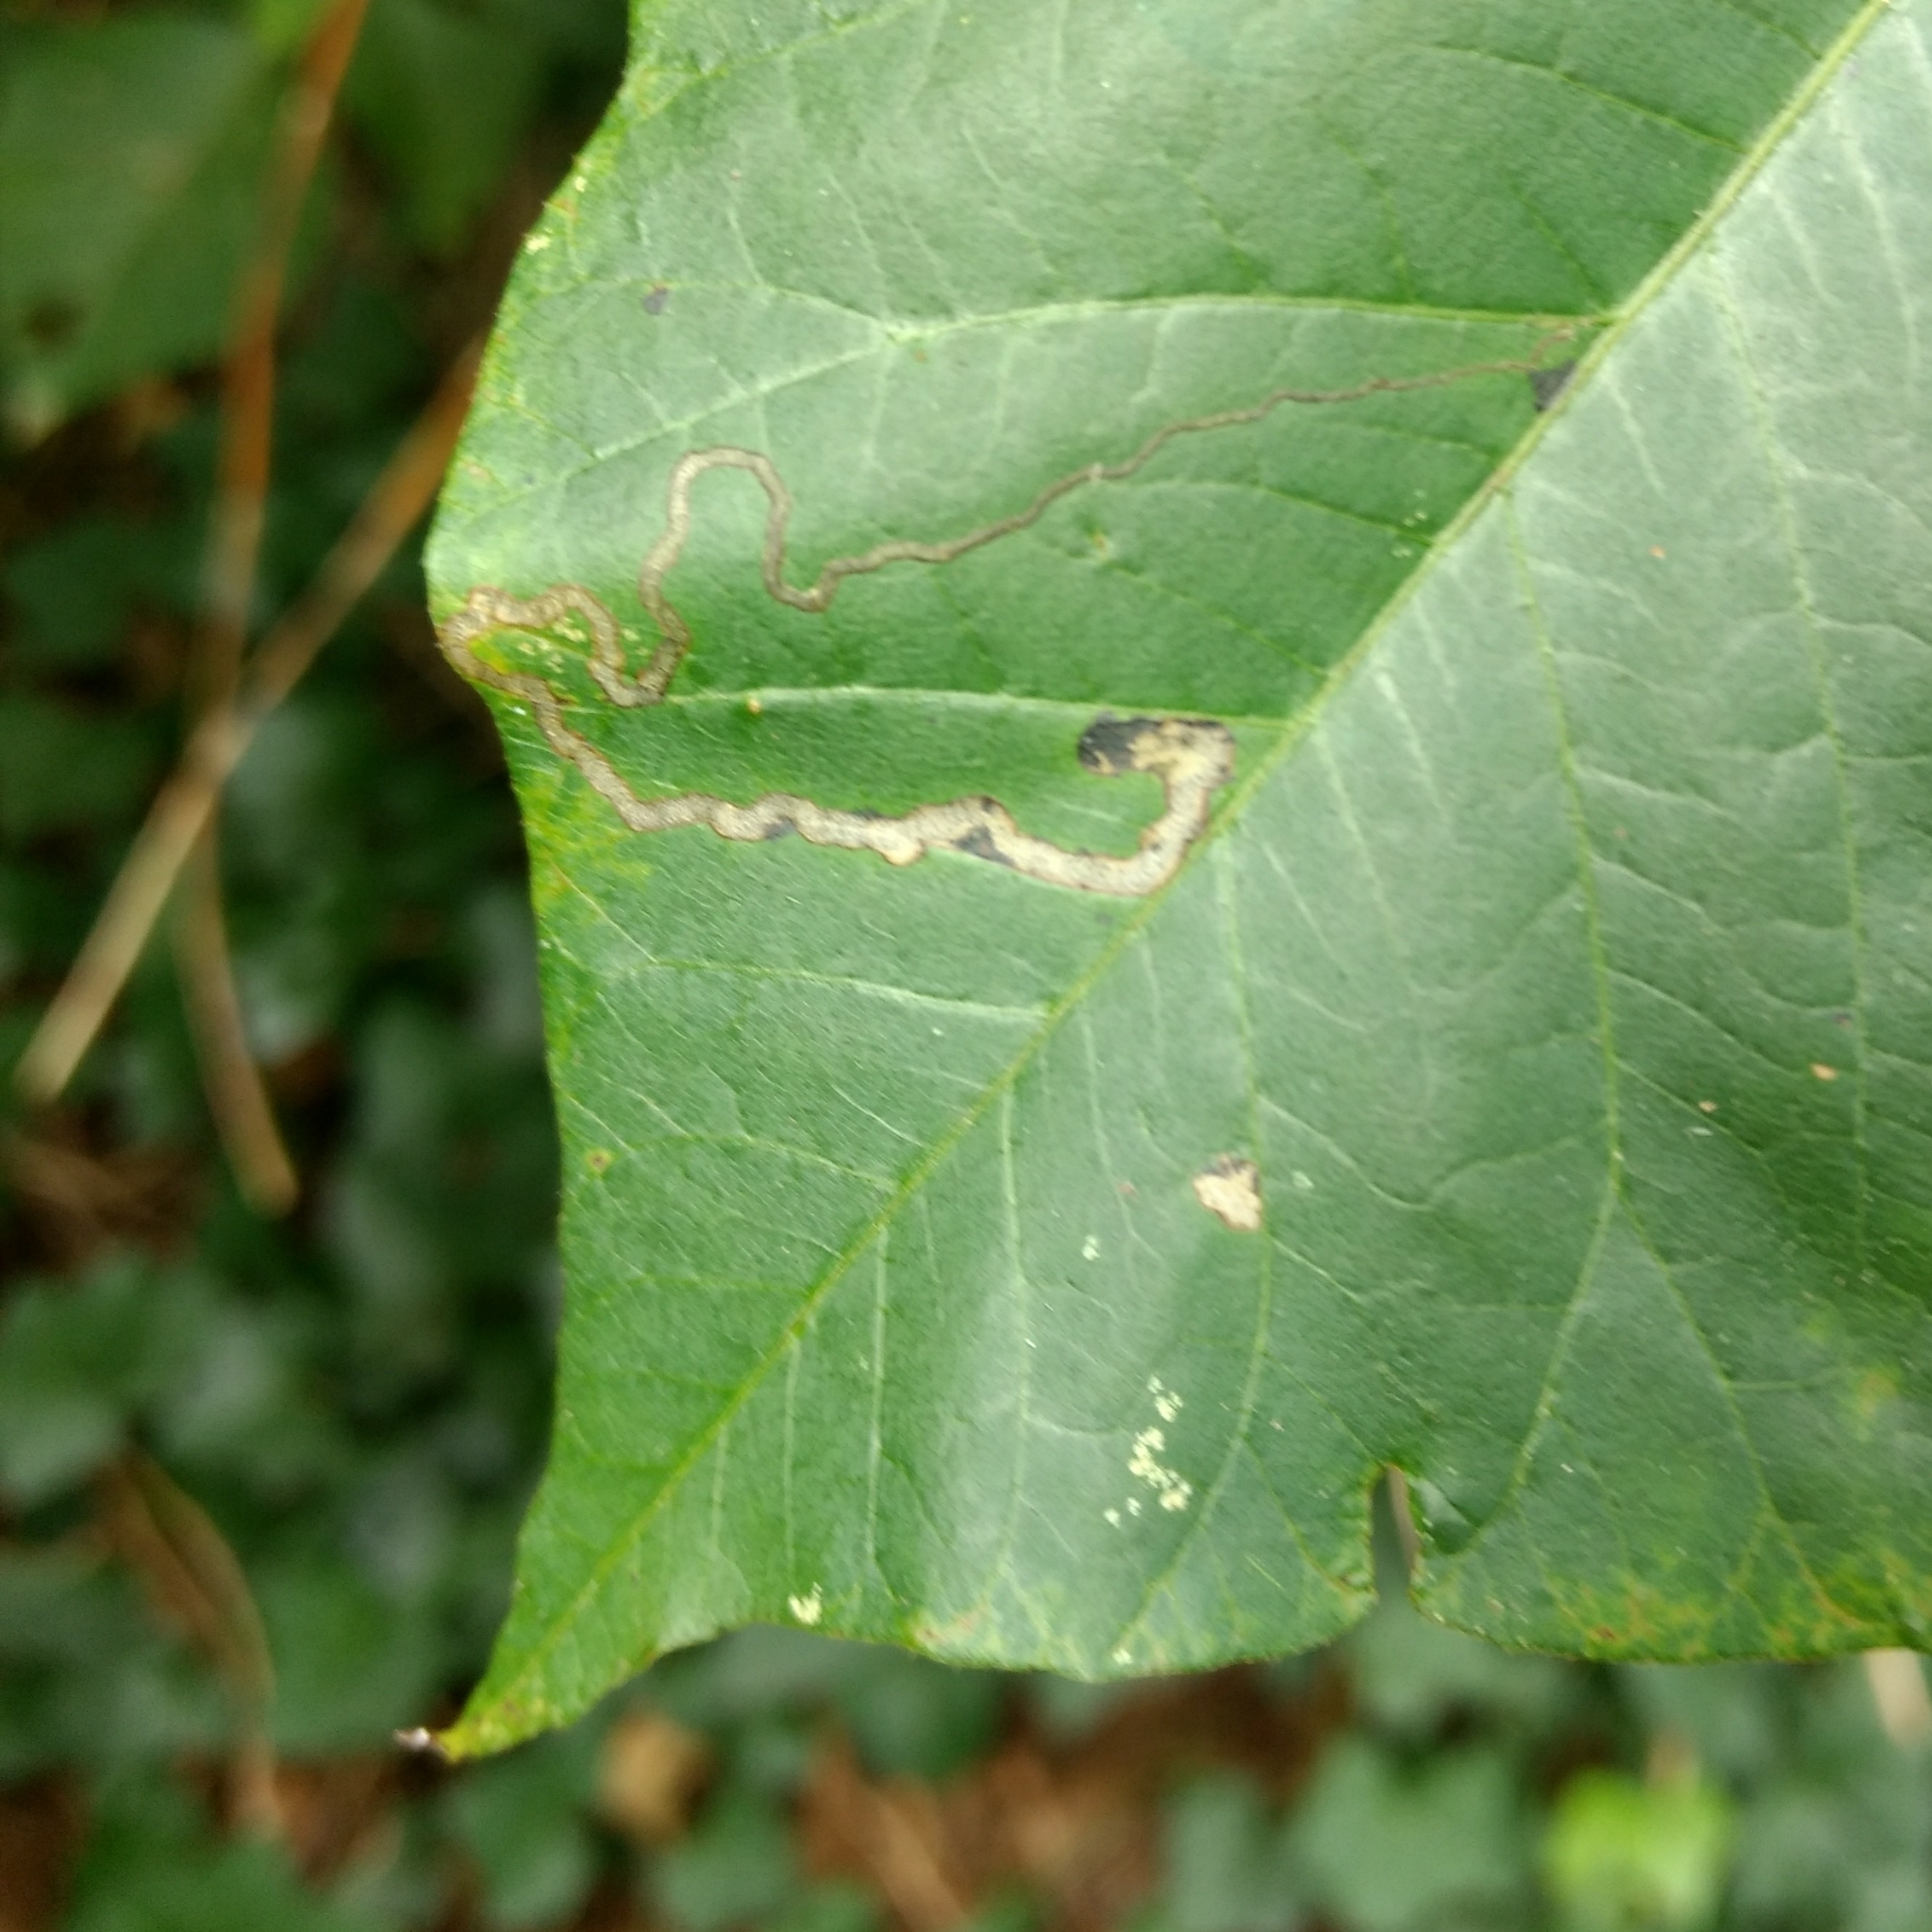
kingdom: Animalia
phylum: Arthropoda
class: Insecta
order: Lepidoptera
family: Nepticulidae
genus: Stigmella
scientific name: Stigmella rhoifoliella
